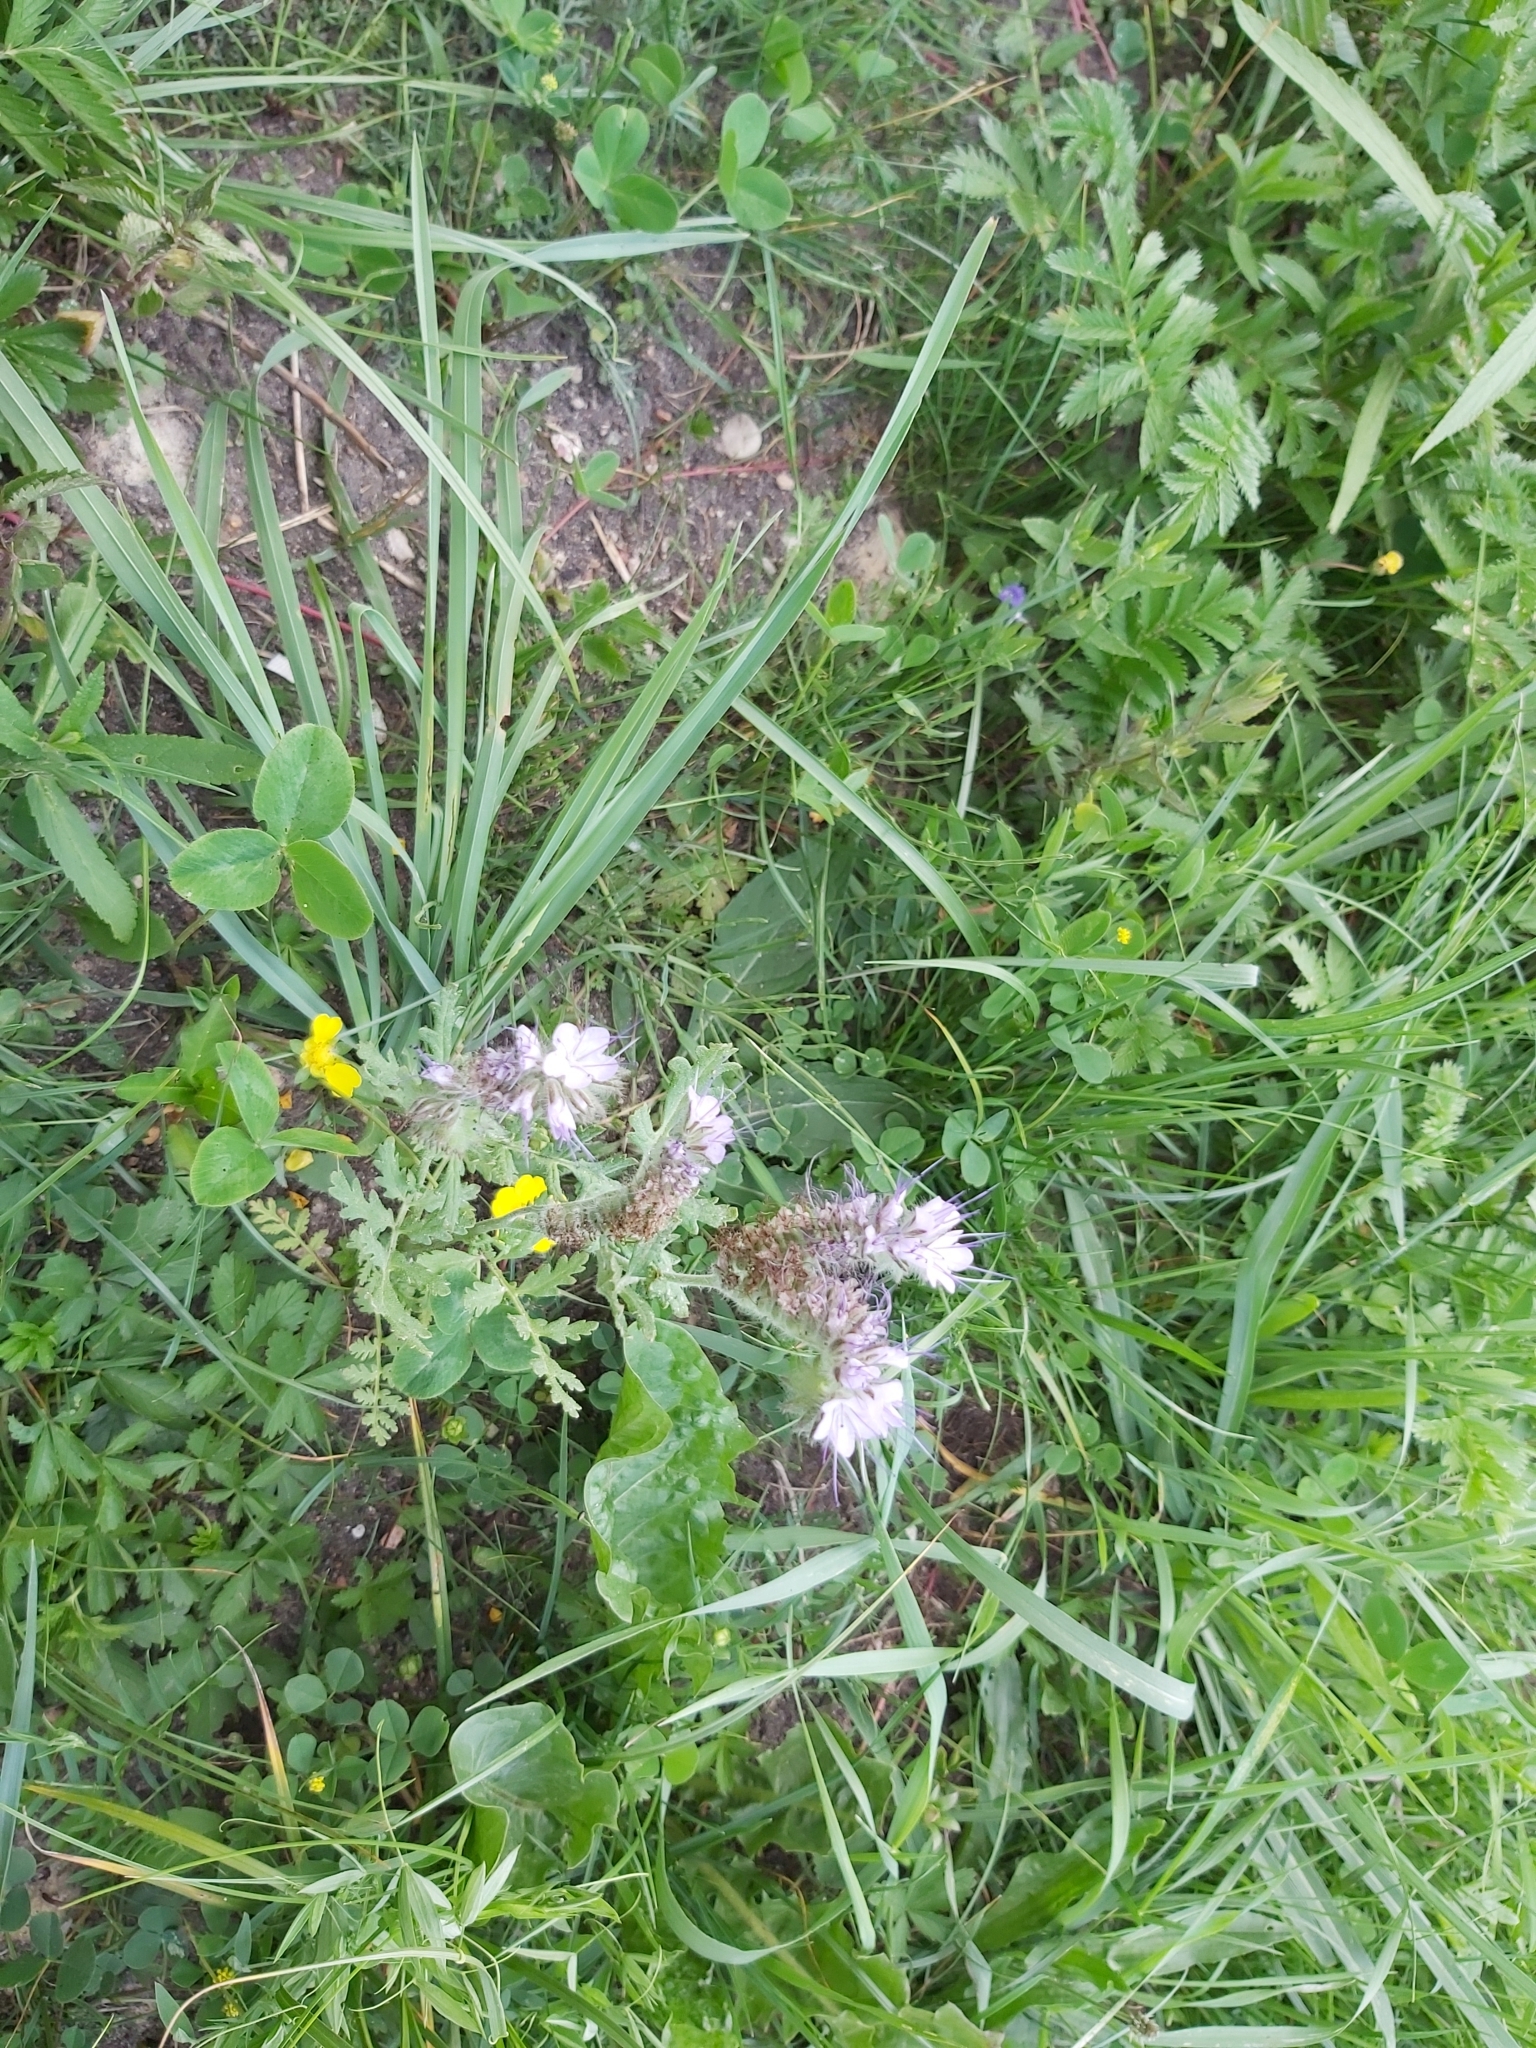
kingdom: Plantae
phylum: Tracheophyta
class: Magnoliopsida
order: Boraginales
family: Hydrophyllaceae
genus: Phacelia
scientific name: Phacelia tanacetifolia
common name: Phacelia
